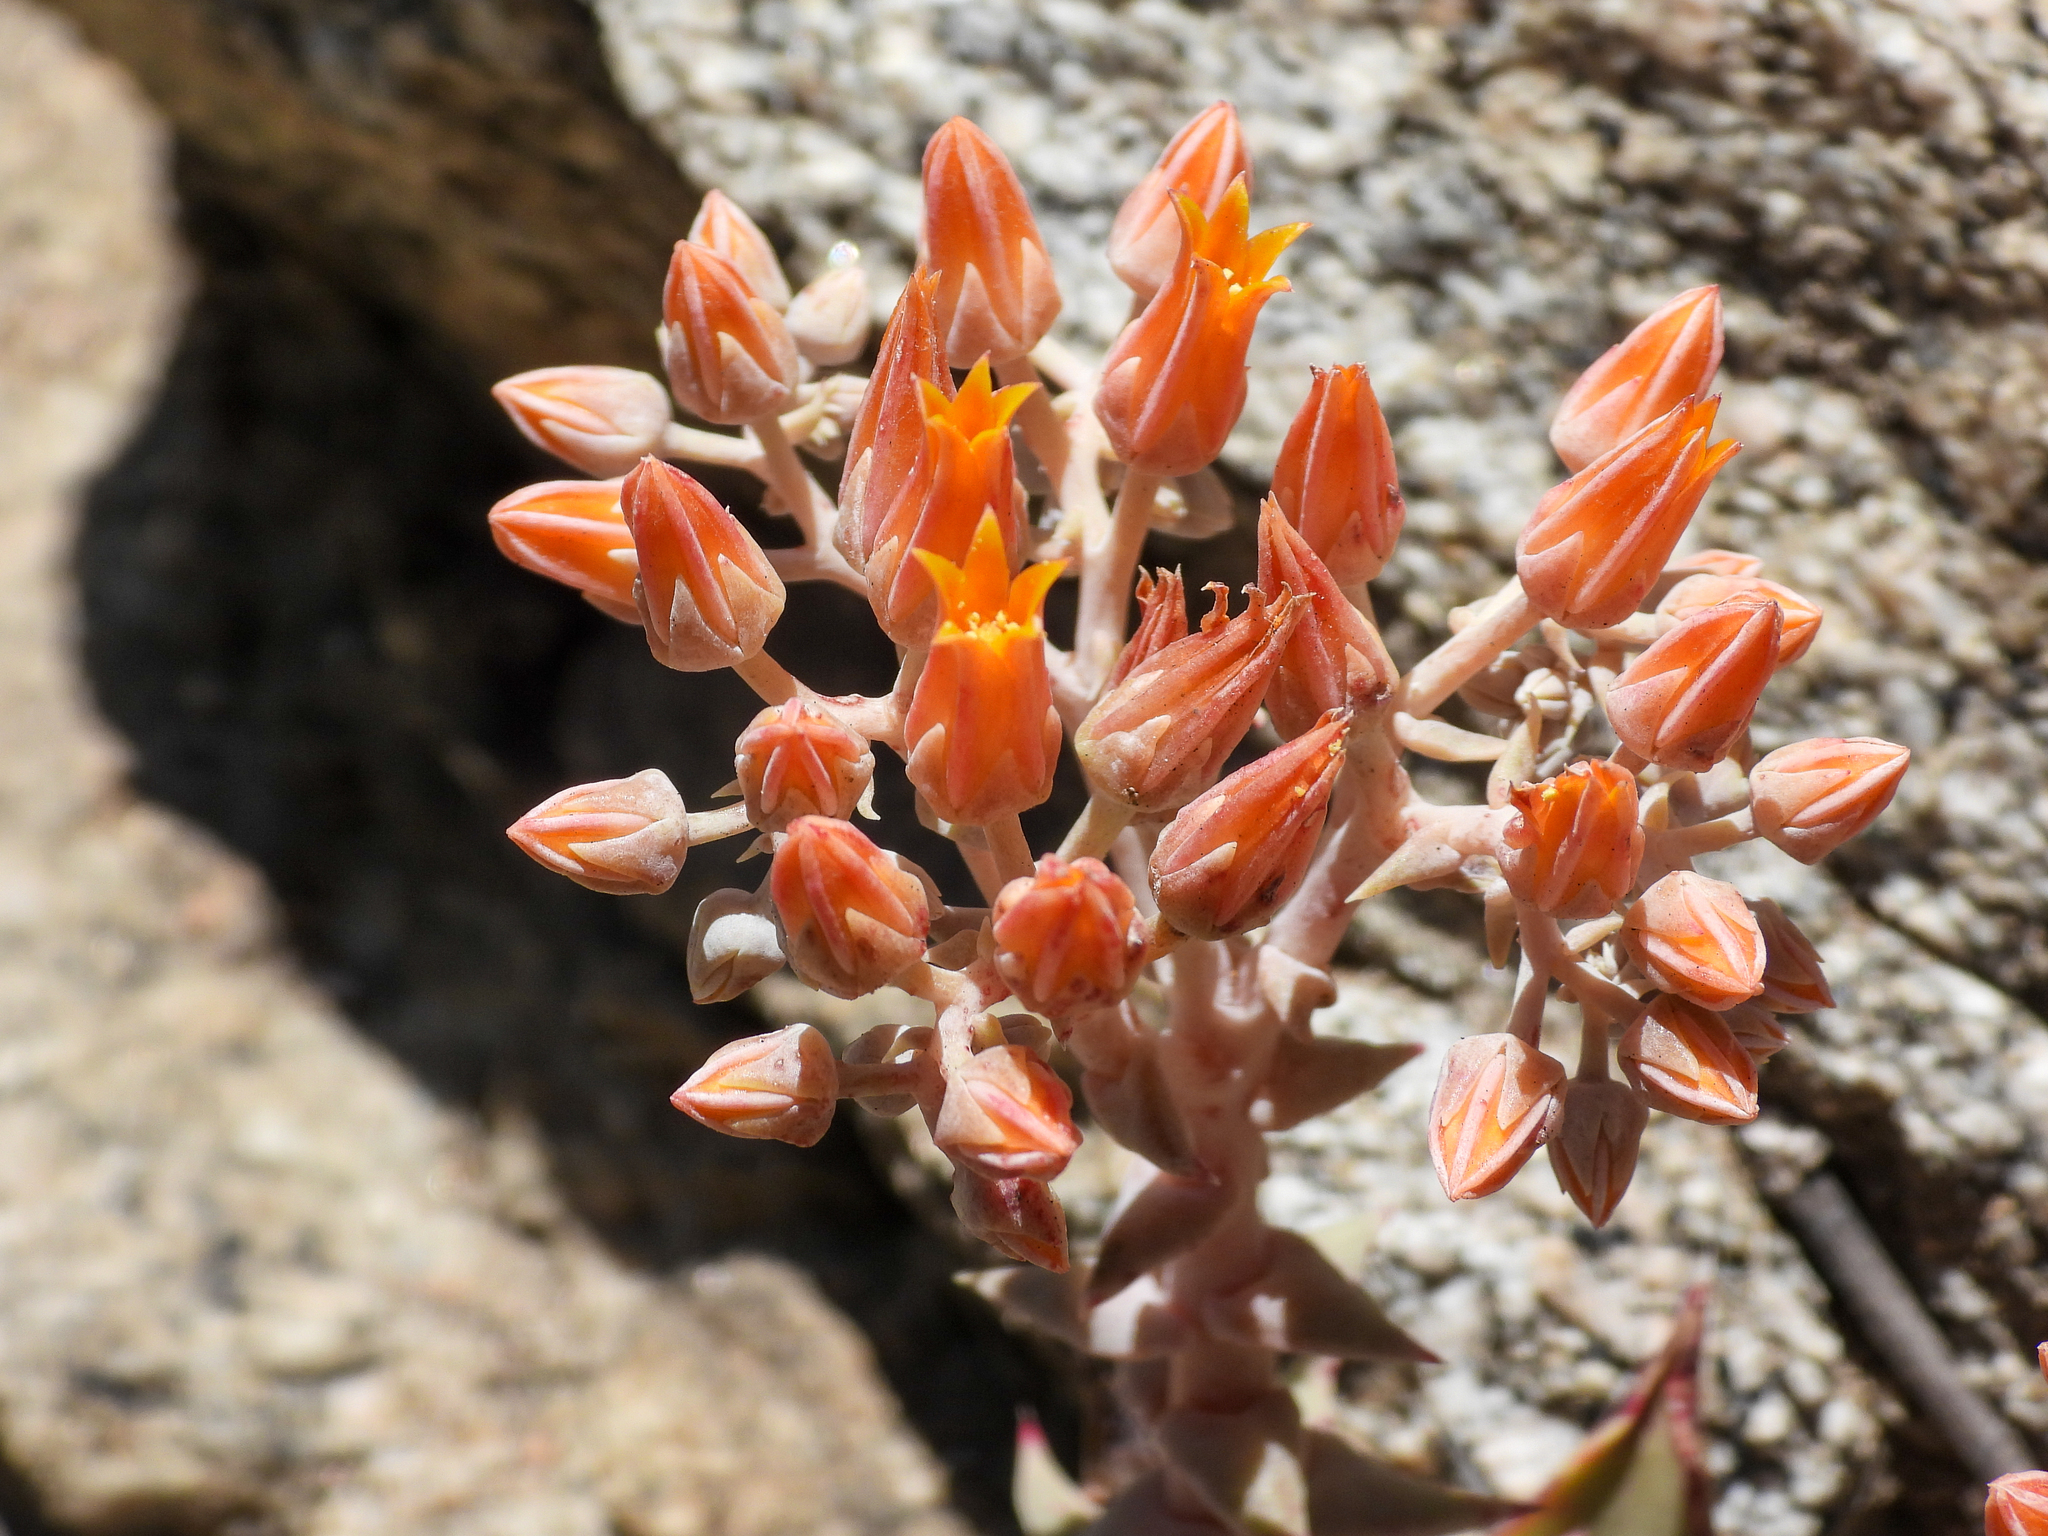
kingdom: Plantae
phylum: Tracheophyta
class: Magnoliopsida
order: Saxifragales
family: Crassulaceae
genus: Dudleya
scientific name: Dudleya cymosa
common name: Canyon dudleya
